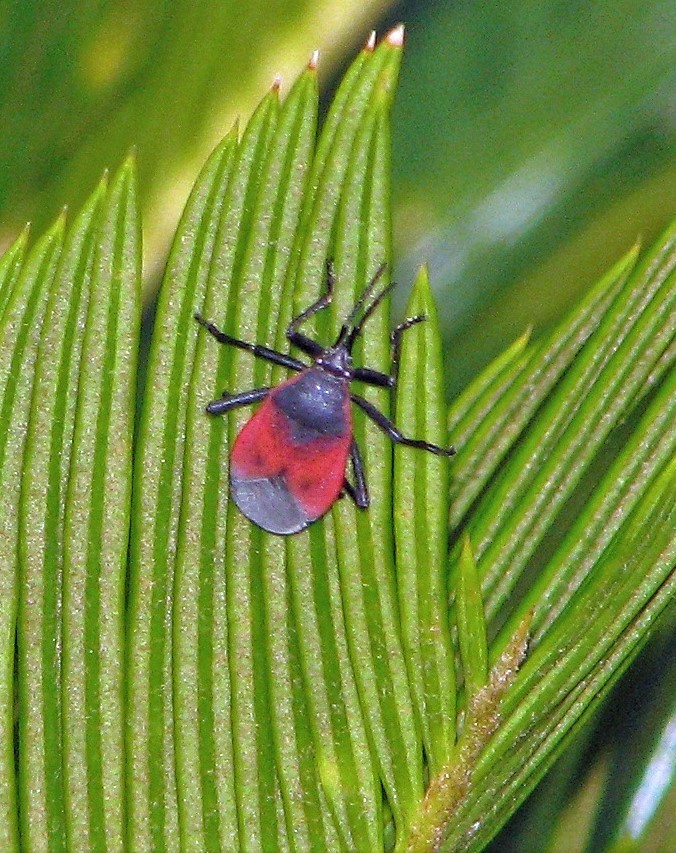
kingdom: Animalia
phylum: Arthropoda
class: Insecta
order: Hemiptera
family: Largidae
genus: Largus
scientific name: Largus rufipennis
